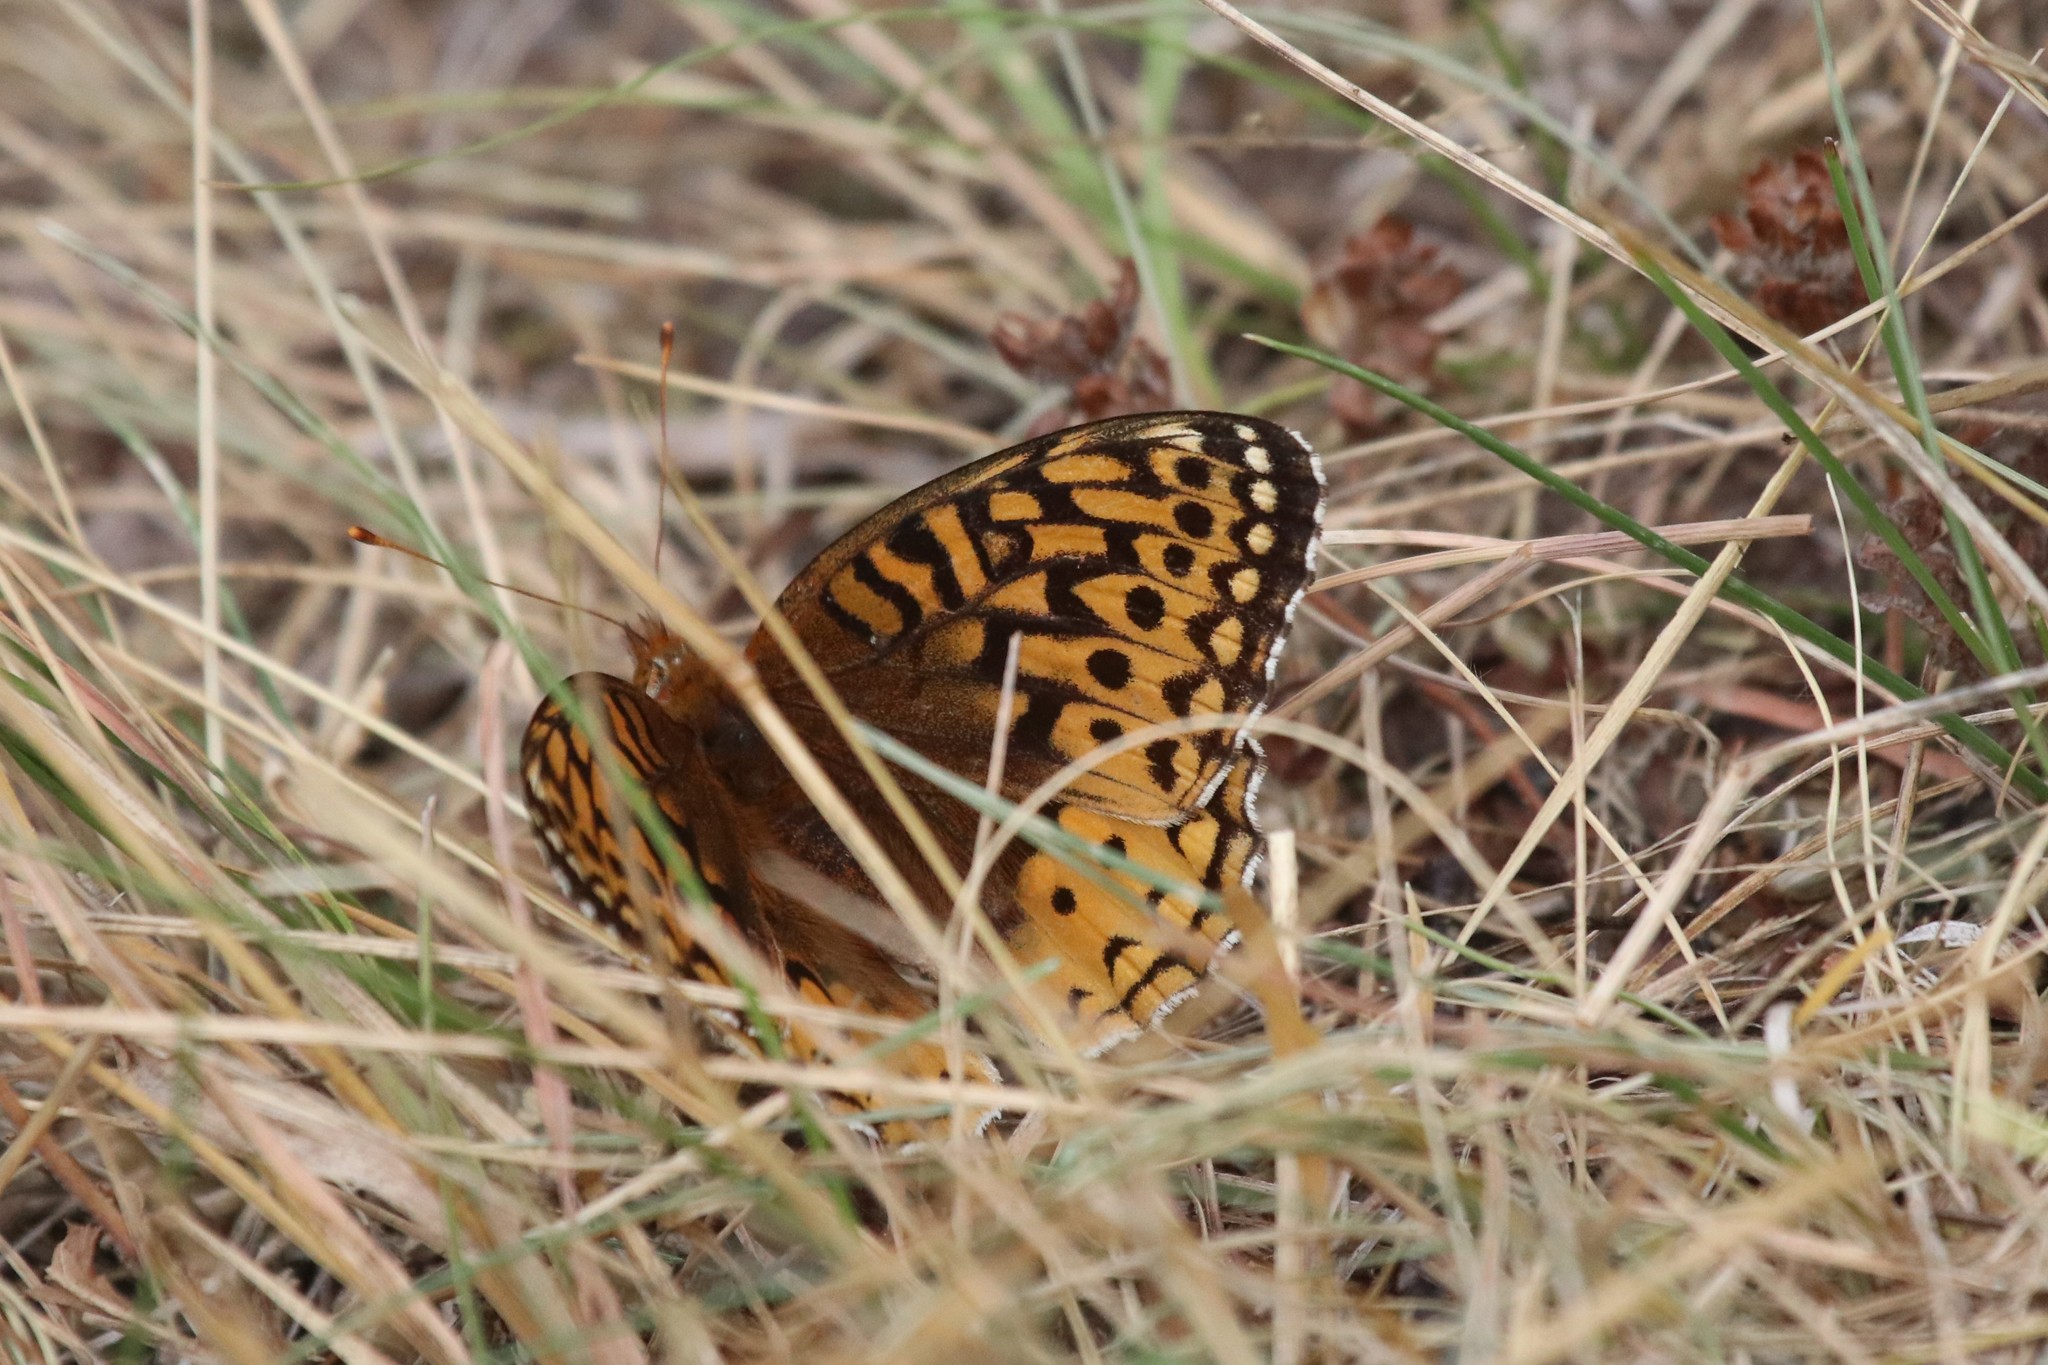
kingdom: Animalia
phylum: Arthropoda
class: Insecta
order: Lepidoptera
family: Nymphalidae
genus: Speyeria
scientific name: Speyeria cybele
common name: Great spangled fritillary
